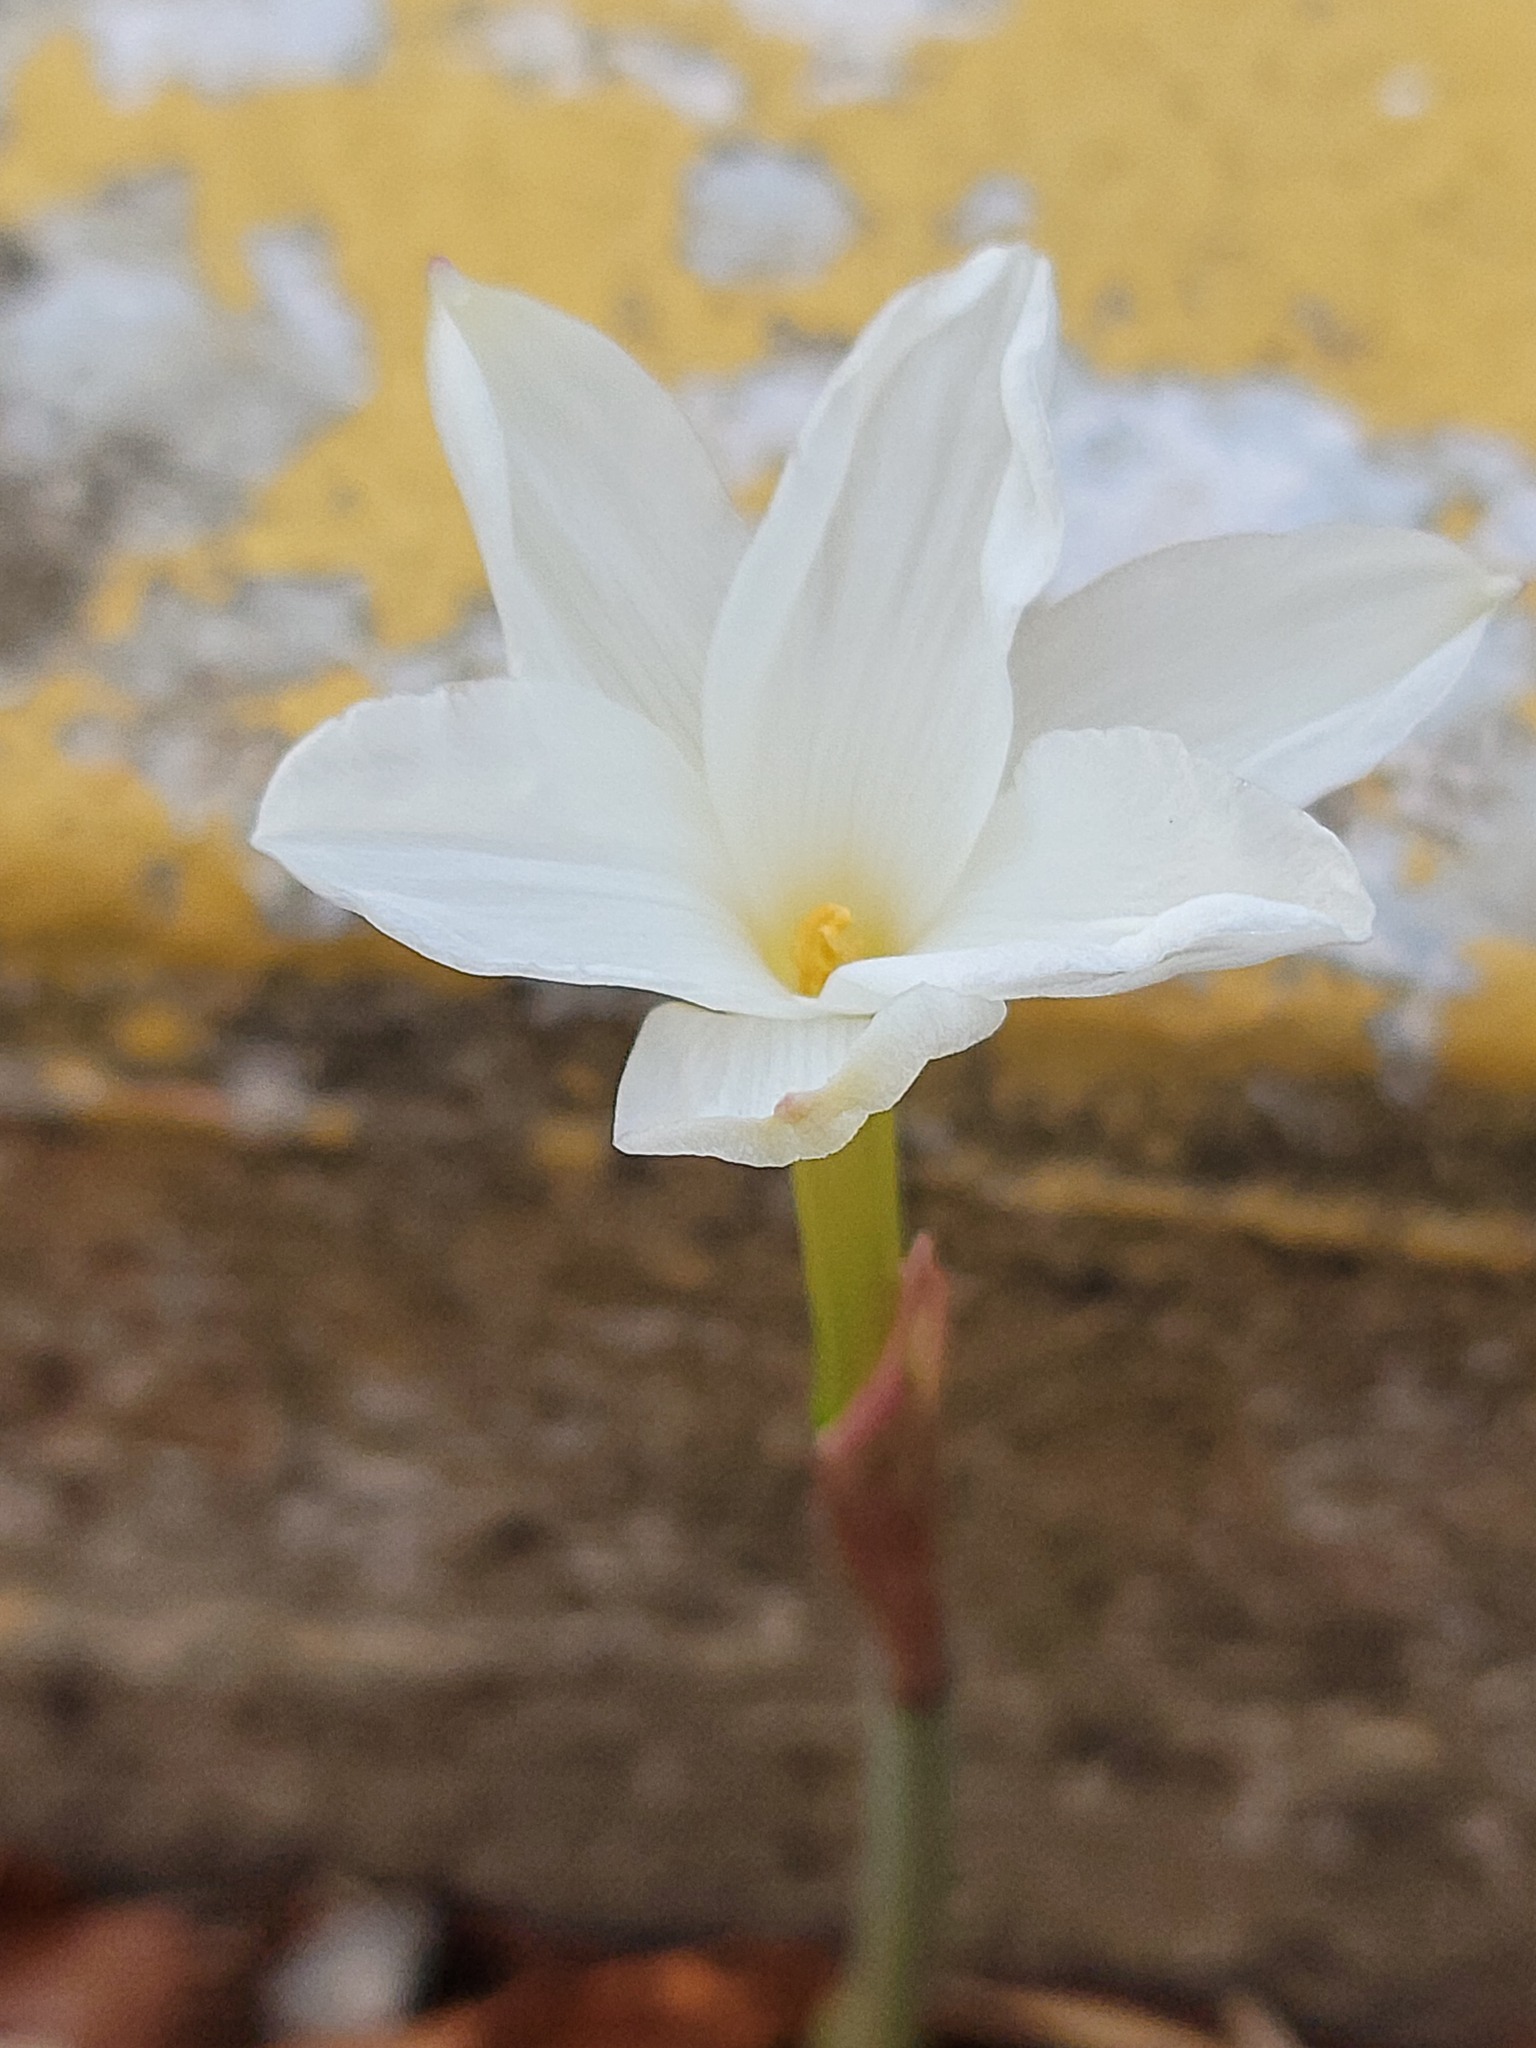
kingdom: Plantae
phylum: Tracheophyta
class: Liliopsida
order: Asparagales
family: Amaryllidaceae
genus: Zephyranthes
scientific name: Zephyranthes drummondii
